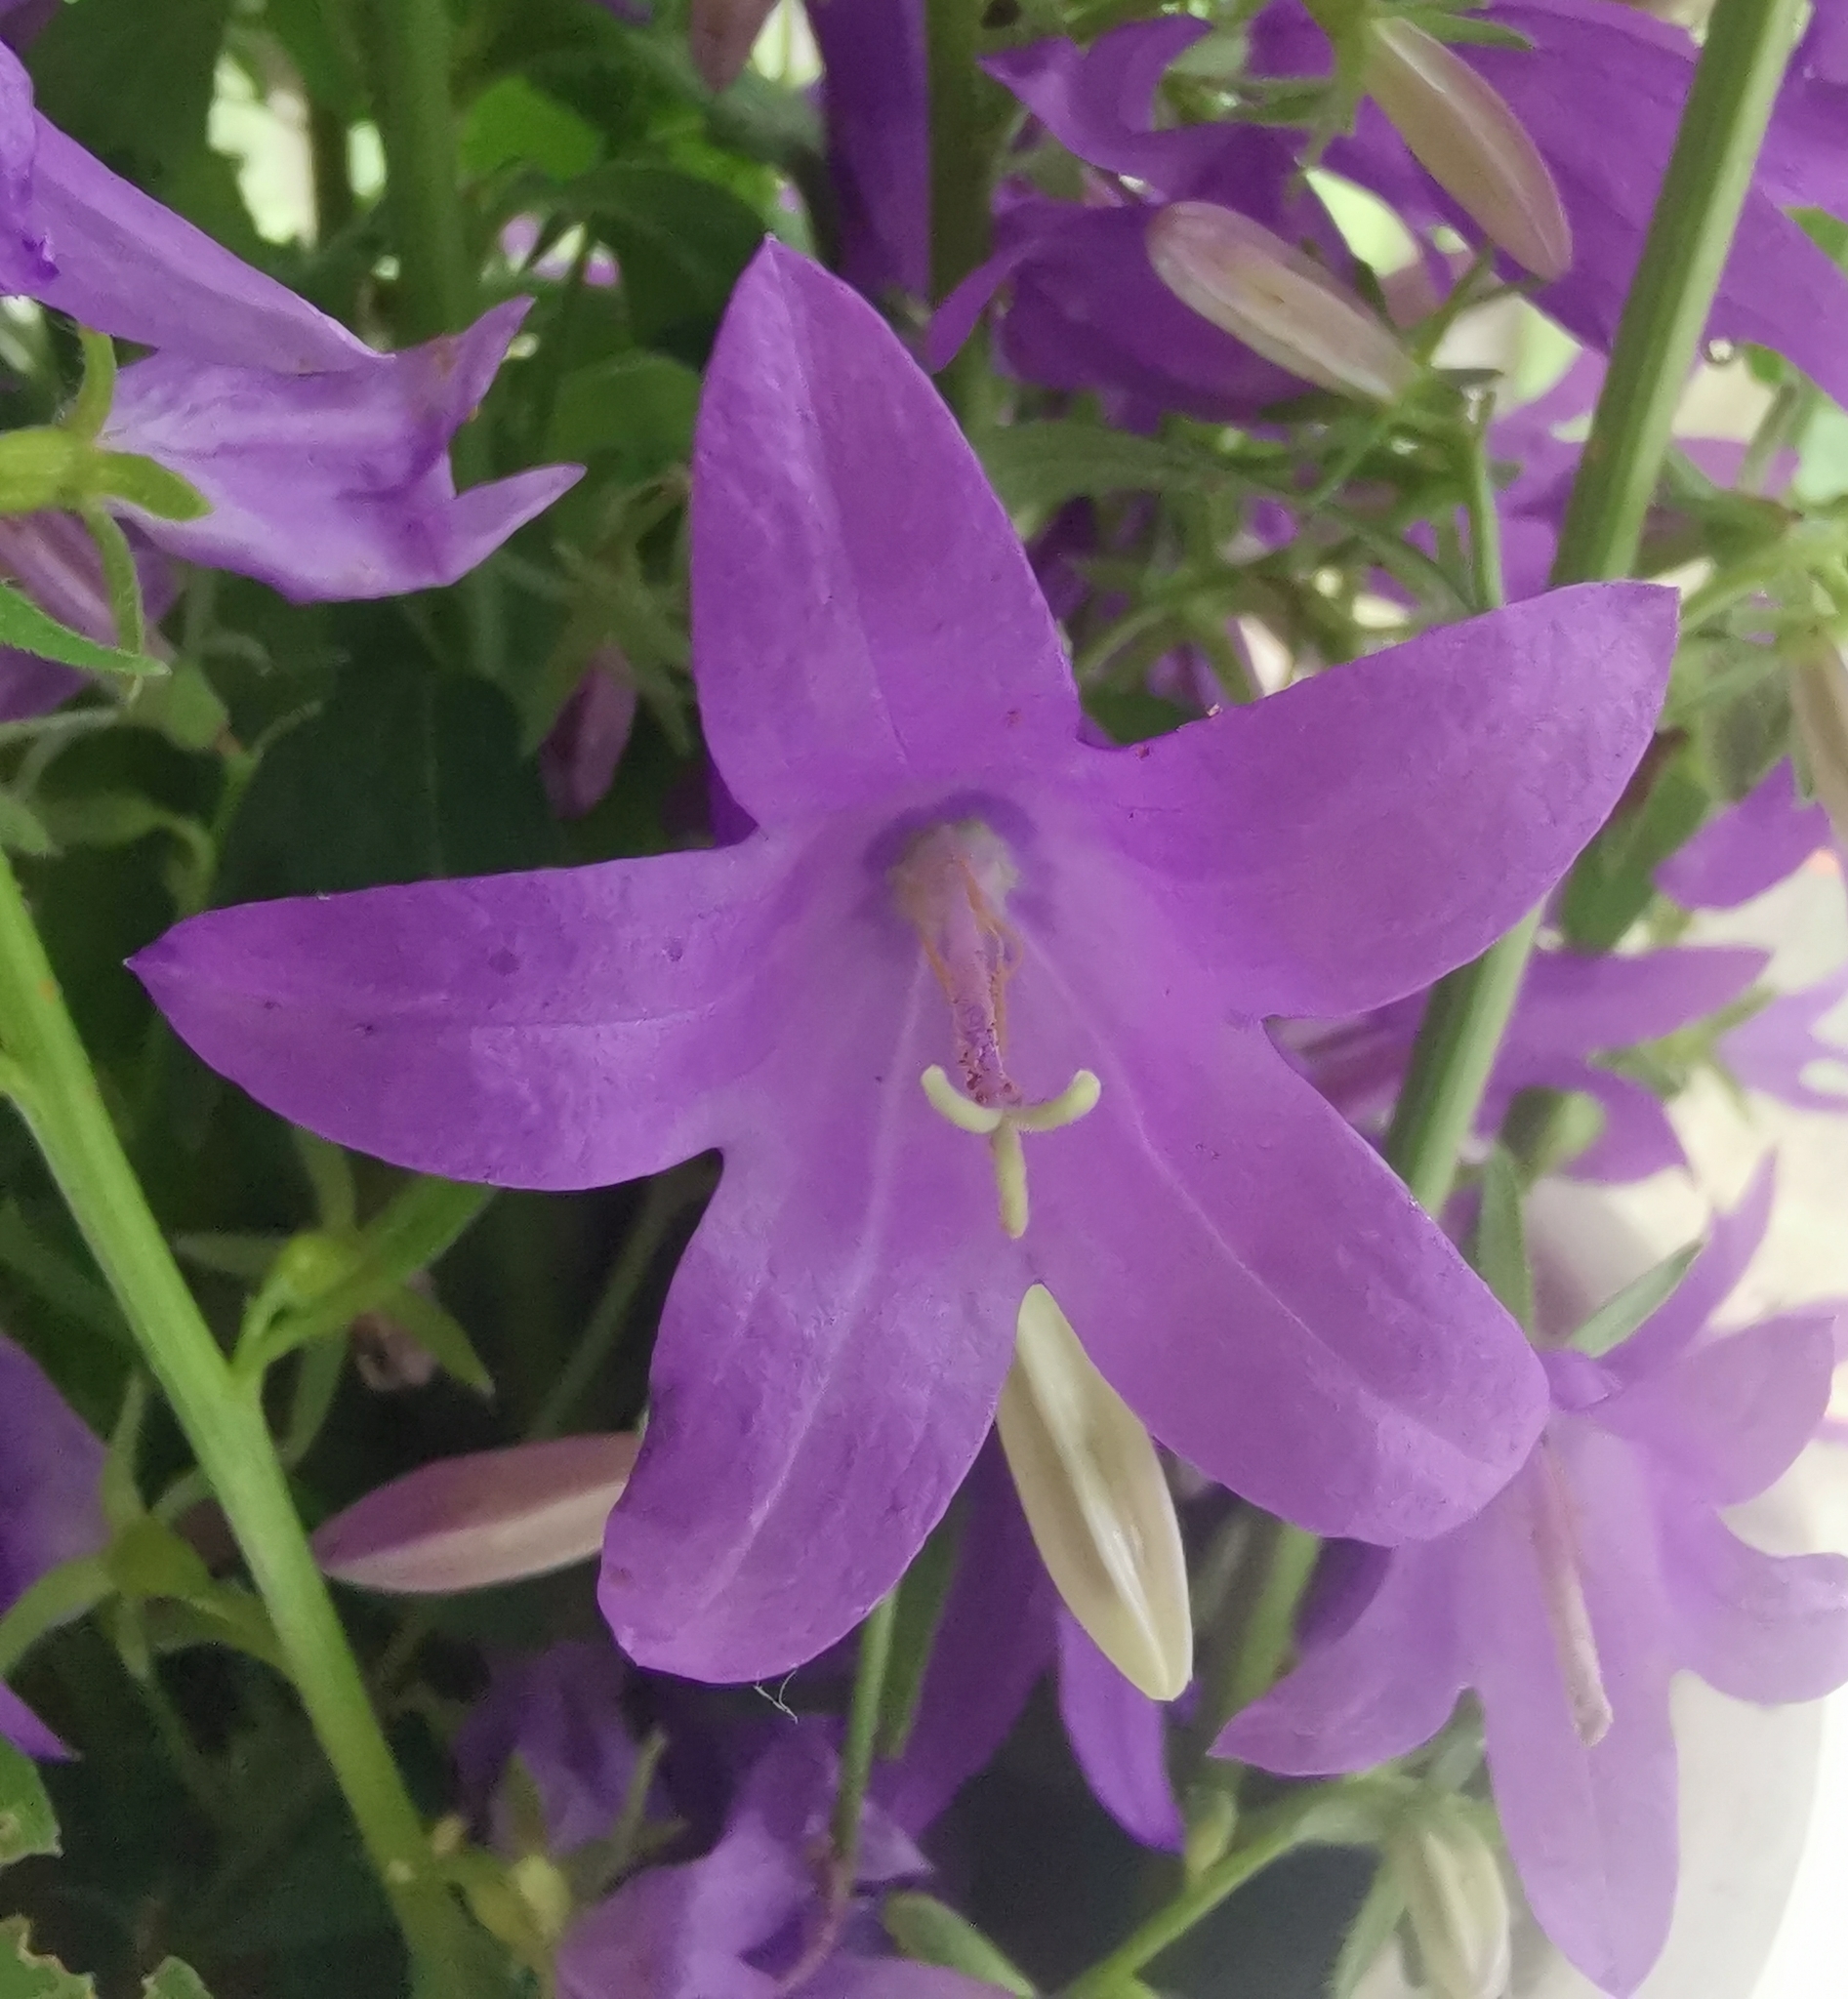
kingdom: Plantae
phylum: Tracheophyta
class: Magnoliopsida
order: Asterales
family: Campanulaceae
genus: Campanula
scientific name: Campanula rapunculoides
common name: Creeping bellflower
